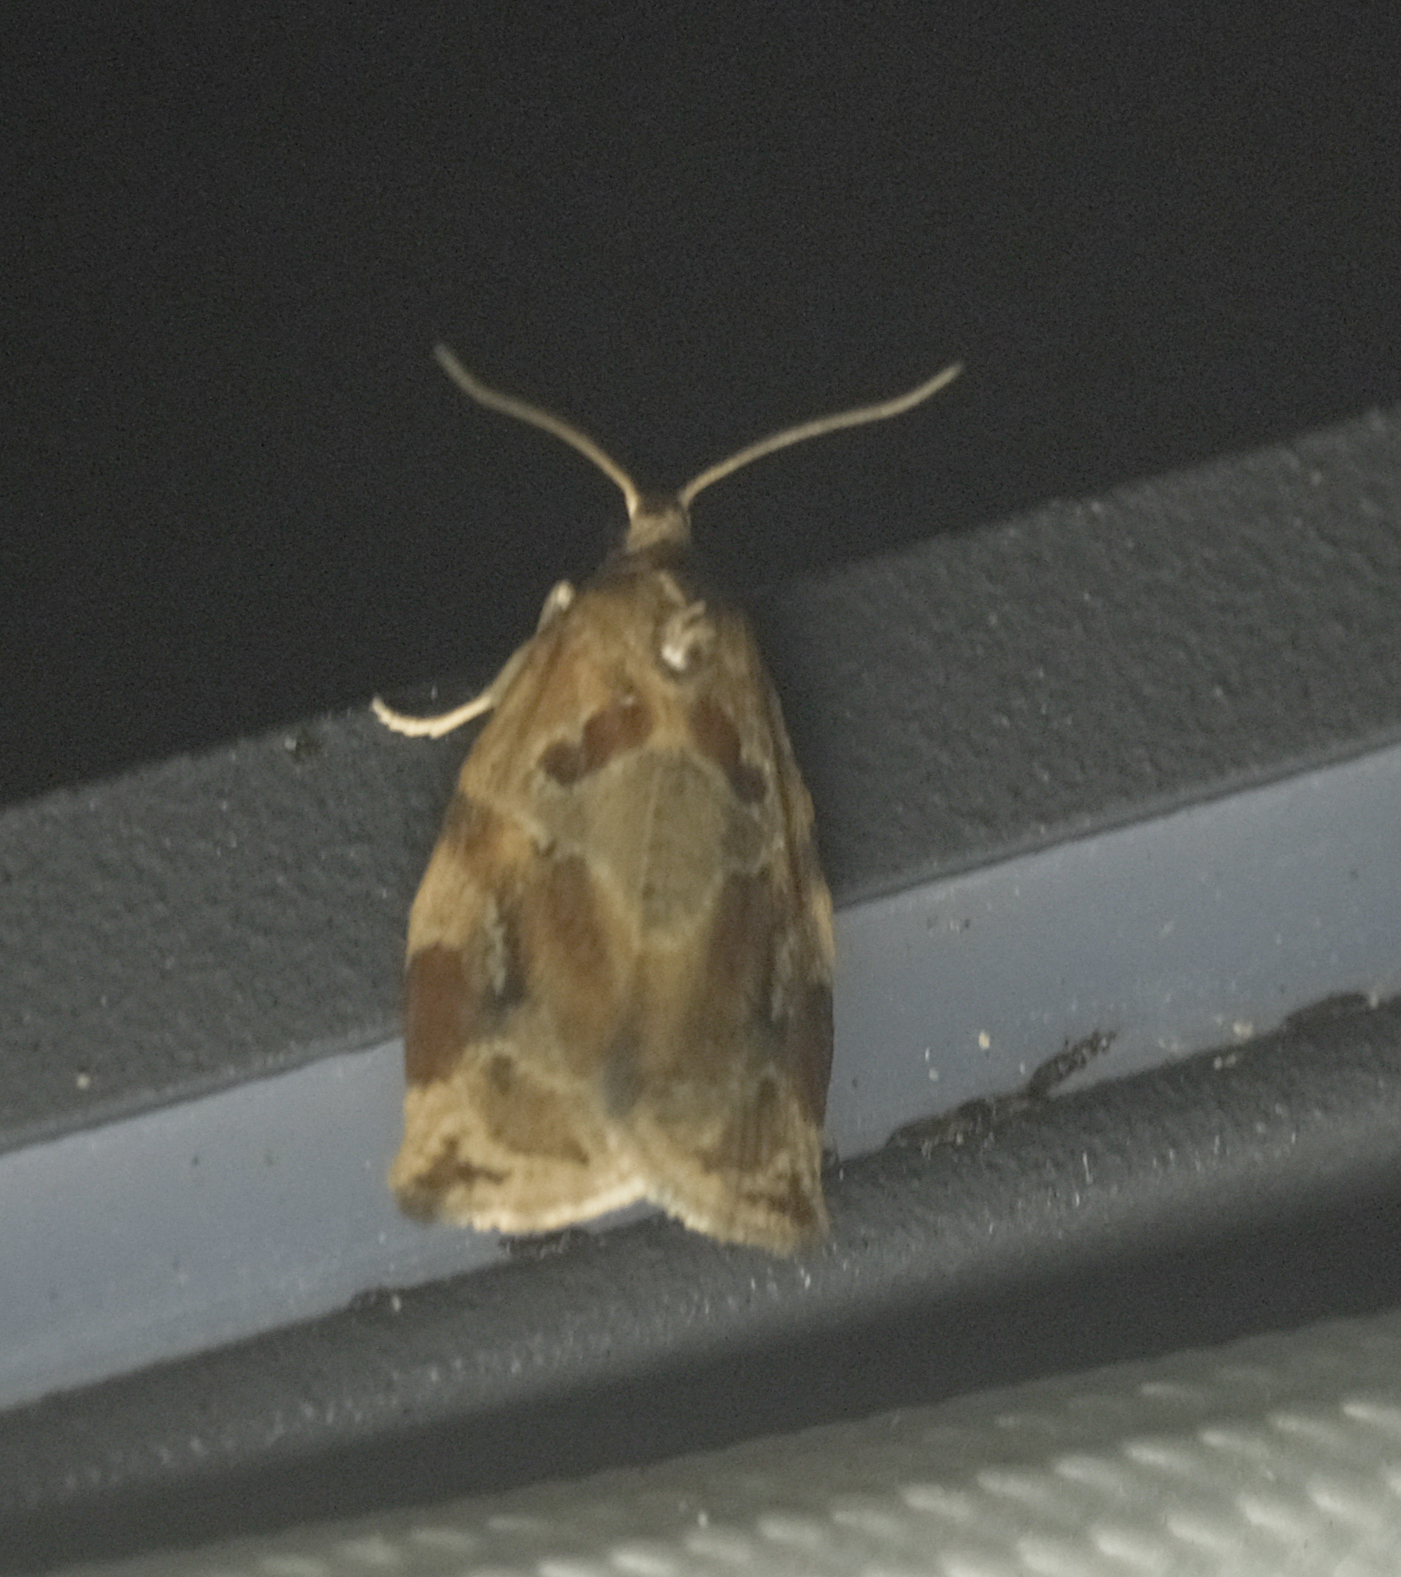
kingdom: Animalia
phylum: Arthropoda
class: Insecta
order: Lepidoptera
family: Tortricidae
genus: Archips
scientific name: Archips xylosteana
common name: Variegated golden tortrix
